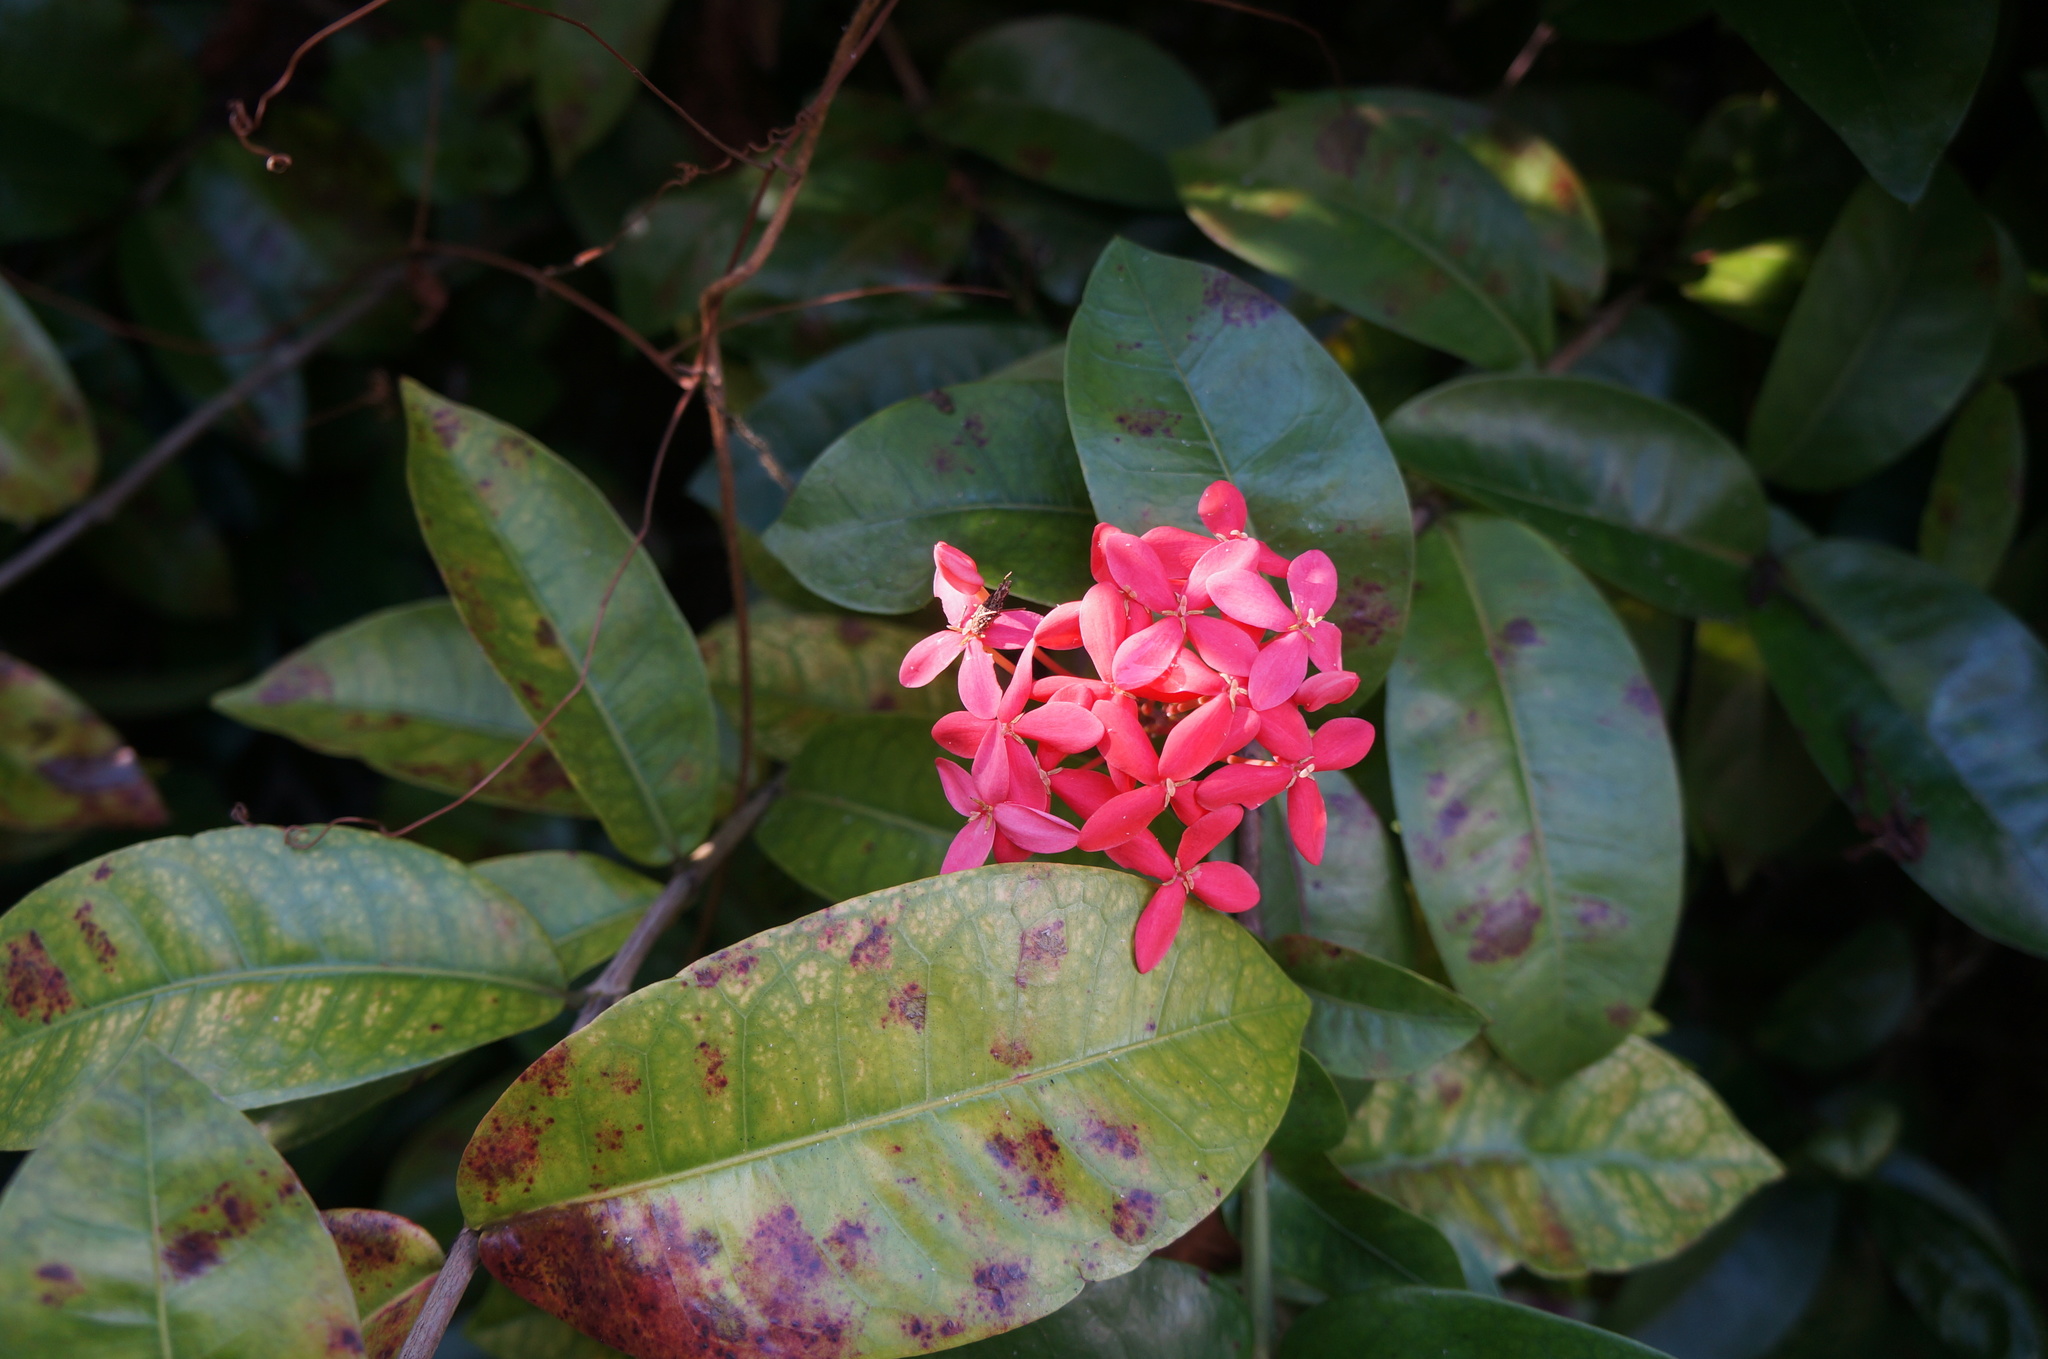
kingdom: Plantae
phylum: Tracheophyta
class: Magnoliopsida
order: Gentianales
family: Rubiaceae
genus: Ixora
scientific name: Ixora coccinea
